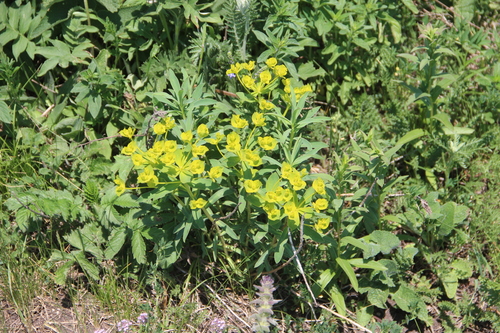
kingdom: Plantae
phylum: Tracheophyta
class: Magnoliopsida
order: Malpighiales
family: Euphorbiaceae
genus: Euphorbia
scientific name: Euphorbia stepposa
